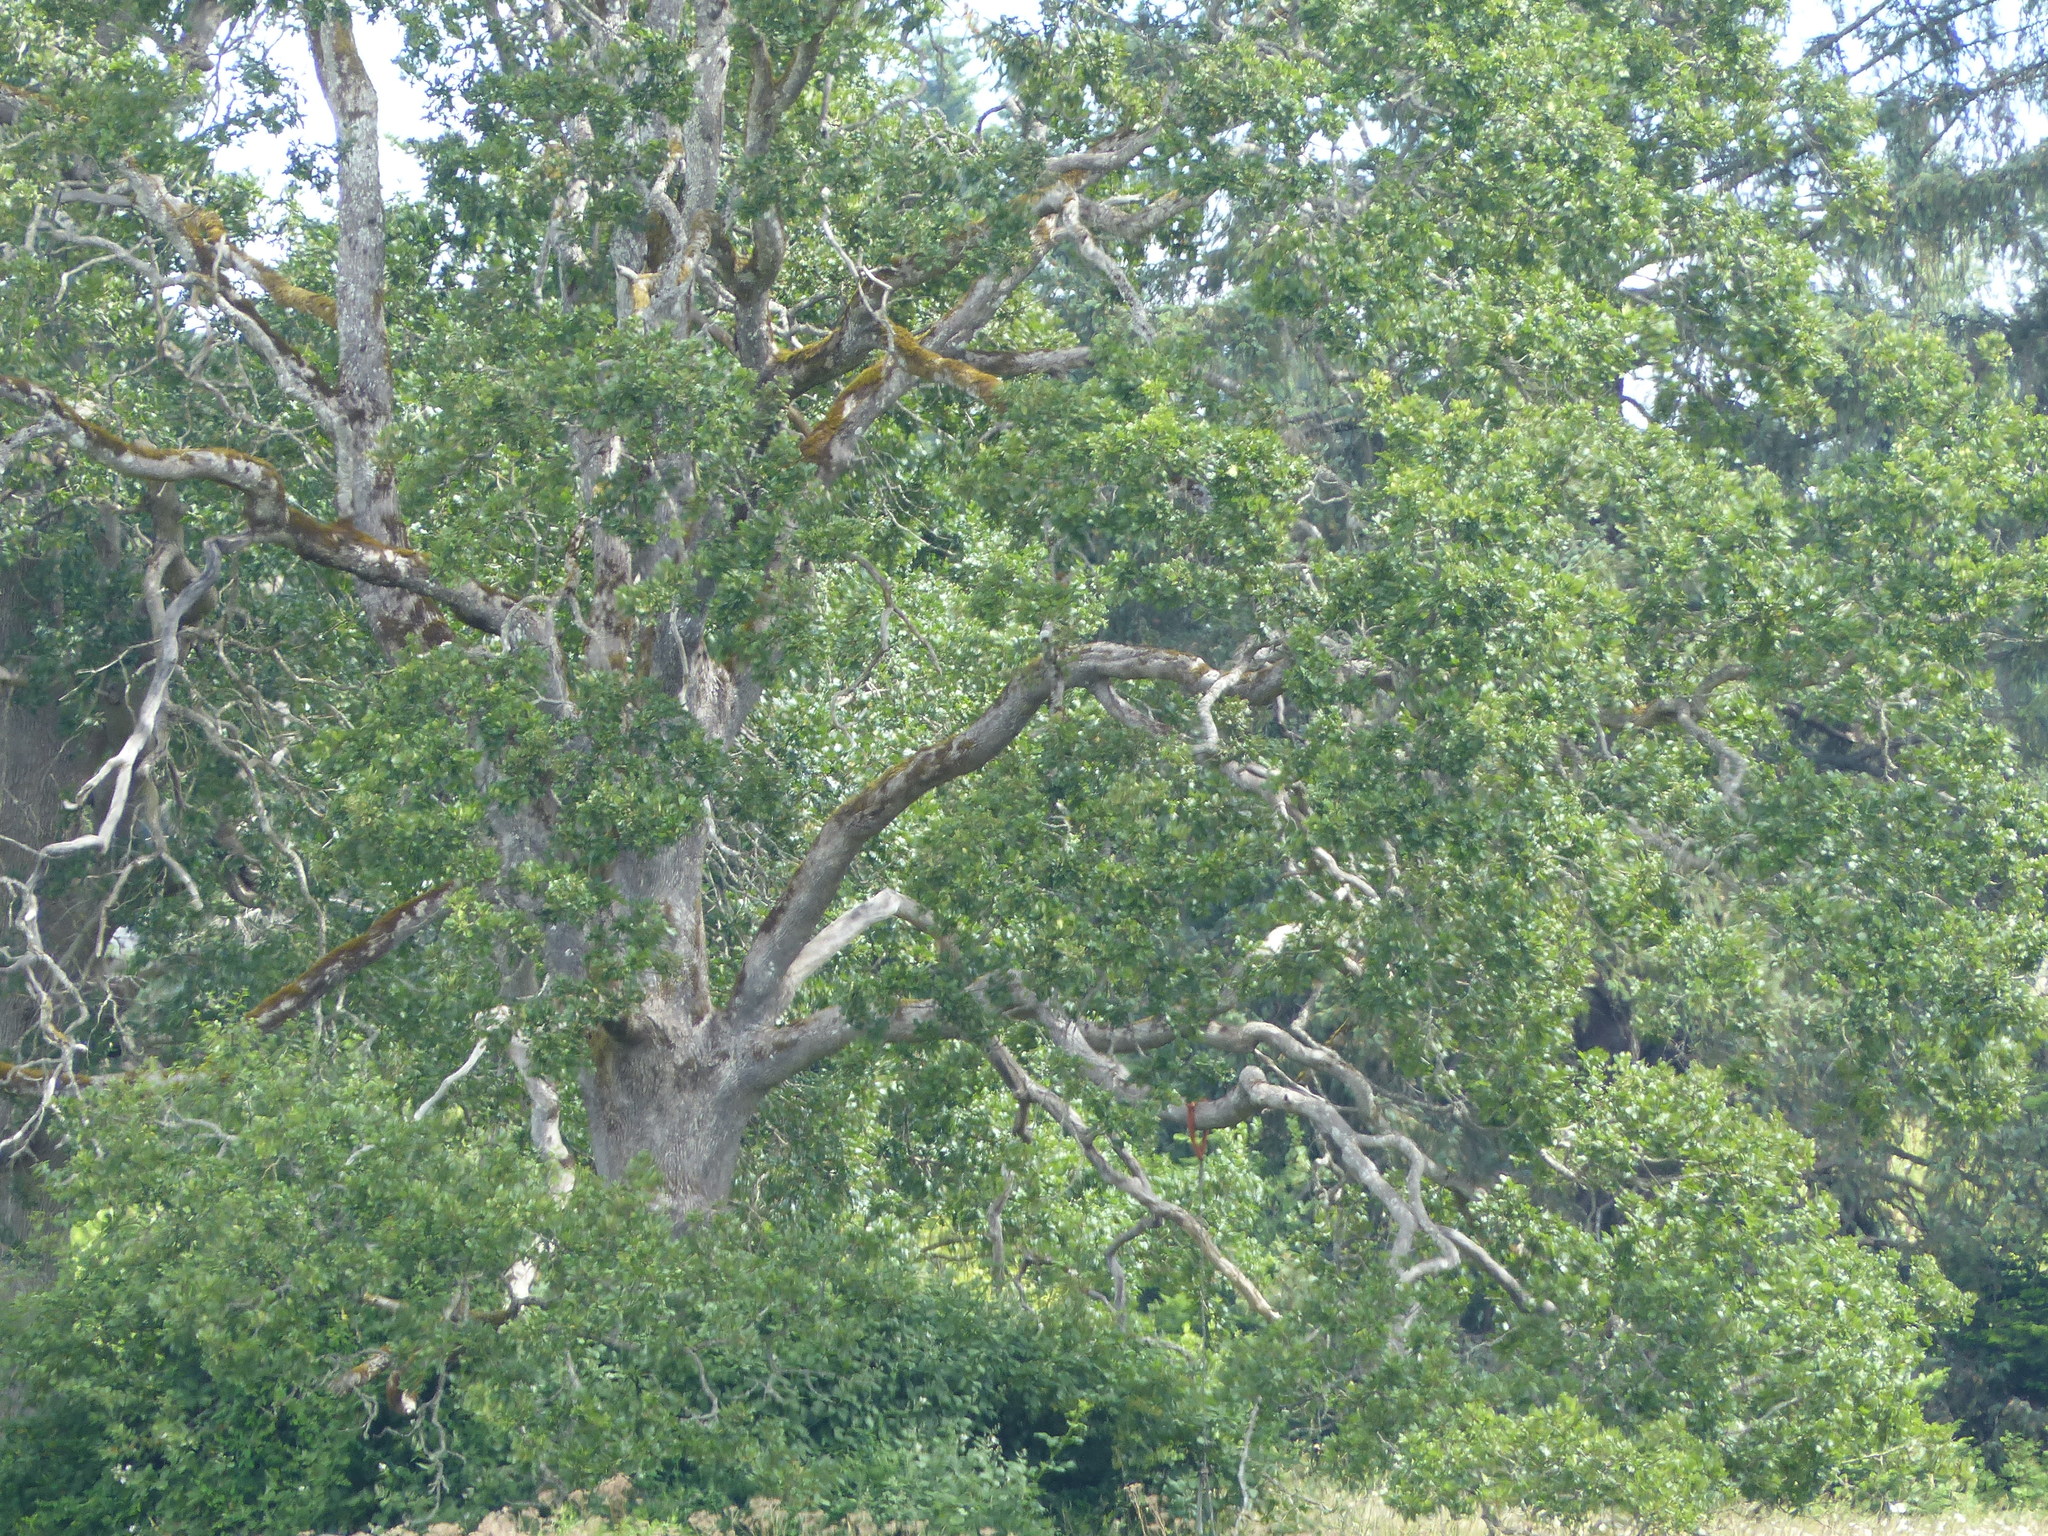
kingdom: Plantae
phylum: Tracheophyta
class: Magnoliopsida
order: Fagales
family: Fagaceae
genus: Quercus
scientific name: Quercus garryana
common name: Garry oak
